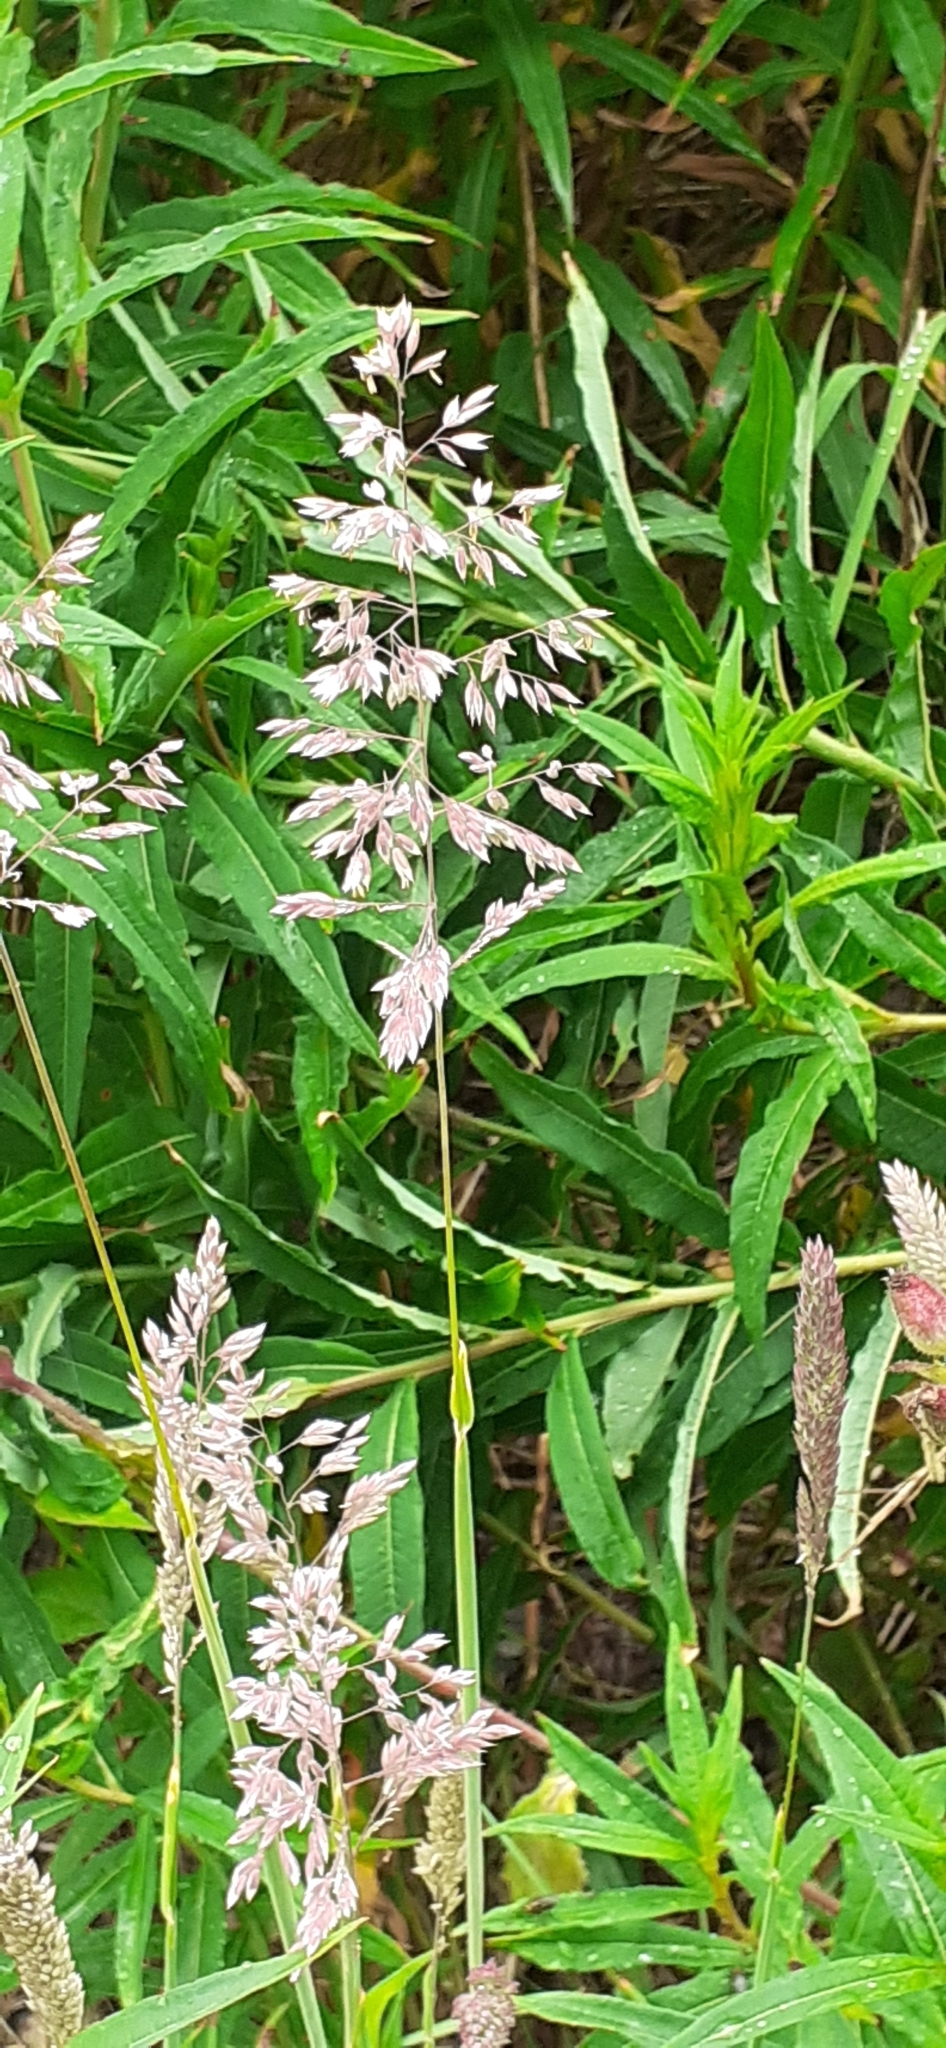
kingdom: Plantae
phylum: Tracheophyta
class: Liliopsida
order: Poales
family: Poaceae
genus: Holcus
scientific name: Holcus lanatus
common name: Yorkshire-fog
